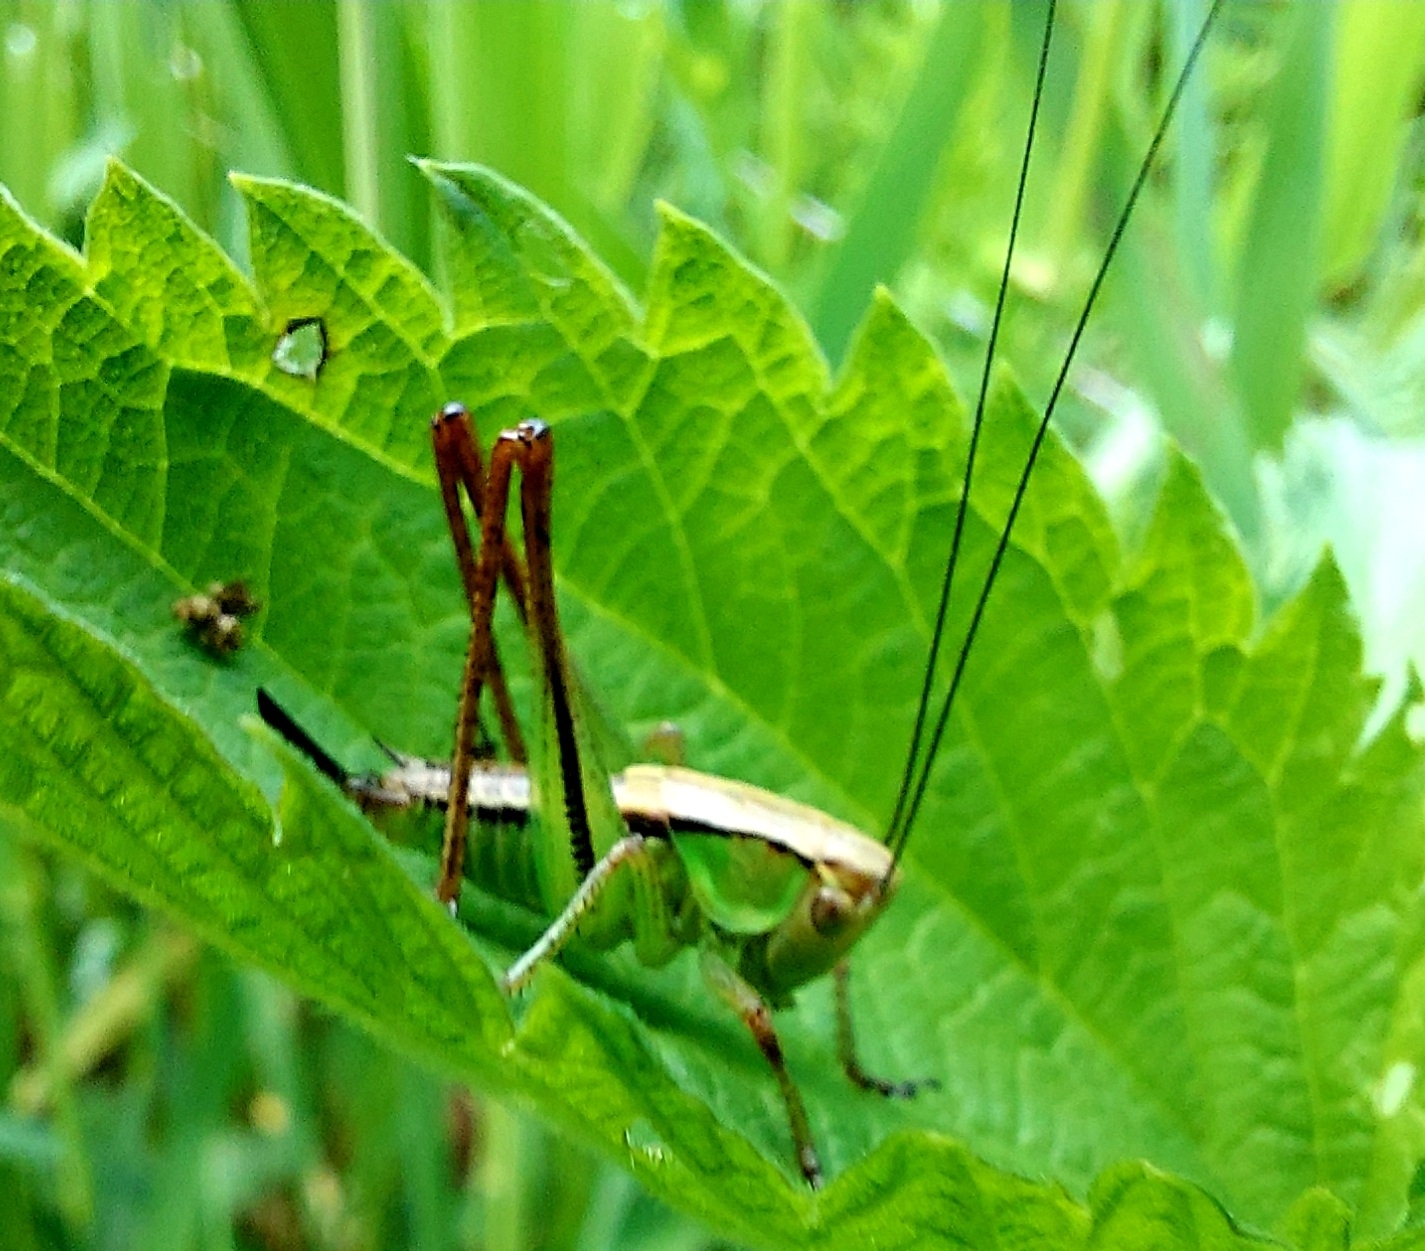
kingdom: Animalia
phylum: Arthropoda
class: Insecta
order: Orthoptera
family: Tettigoniidae
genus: Roeseliana
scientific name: Roeseliana roeselii
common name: Roesel's bush cricket
